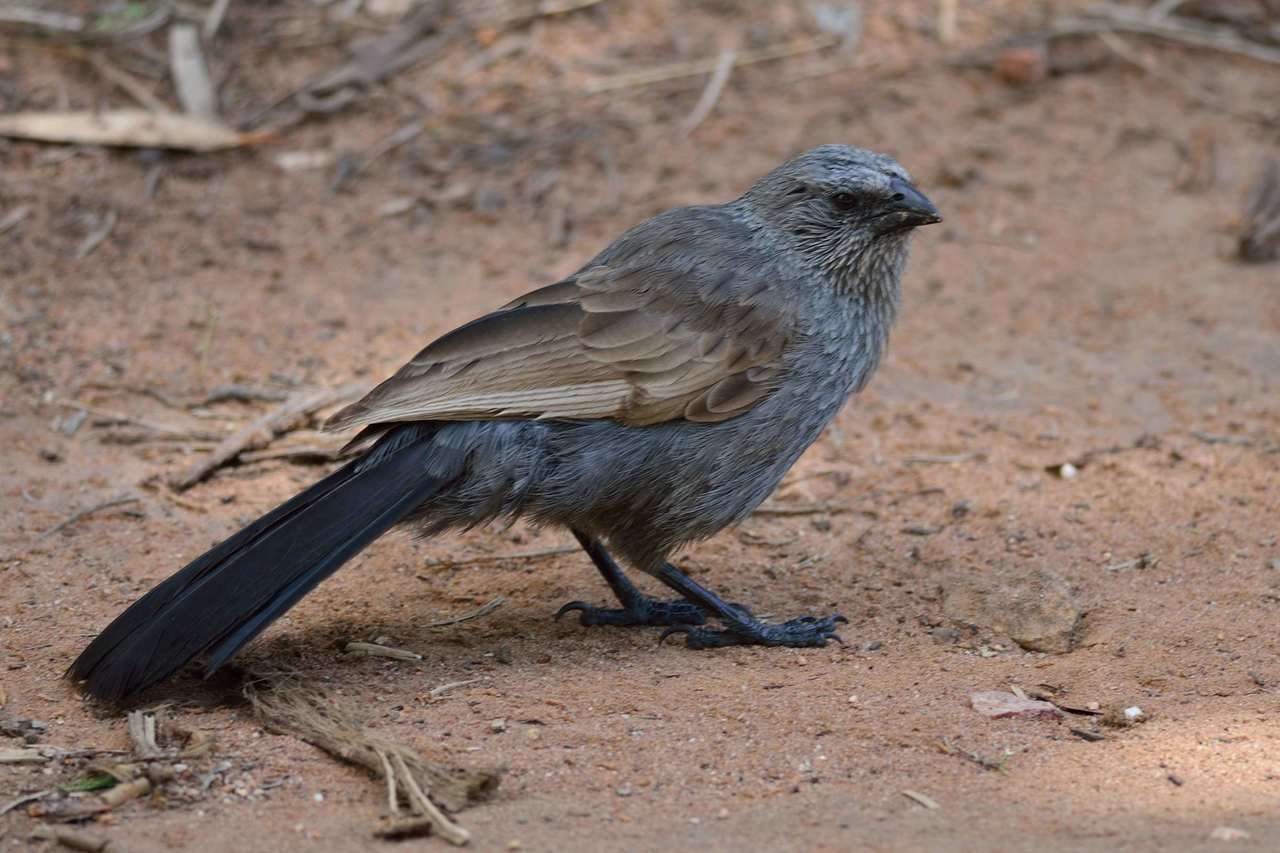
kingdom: Animalia
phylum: Chordata
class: Aves
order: Passeriformes
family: Corcoracidae
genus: Struthidea
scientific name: Struthidea cinerea
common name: Apostlebird
